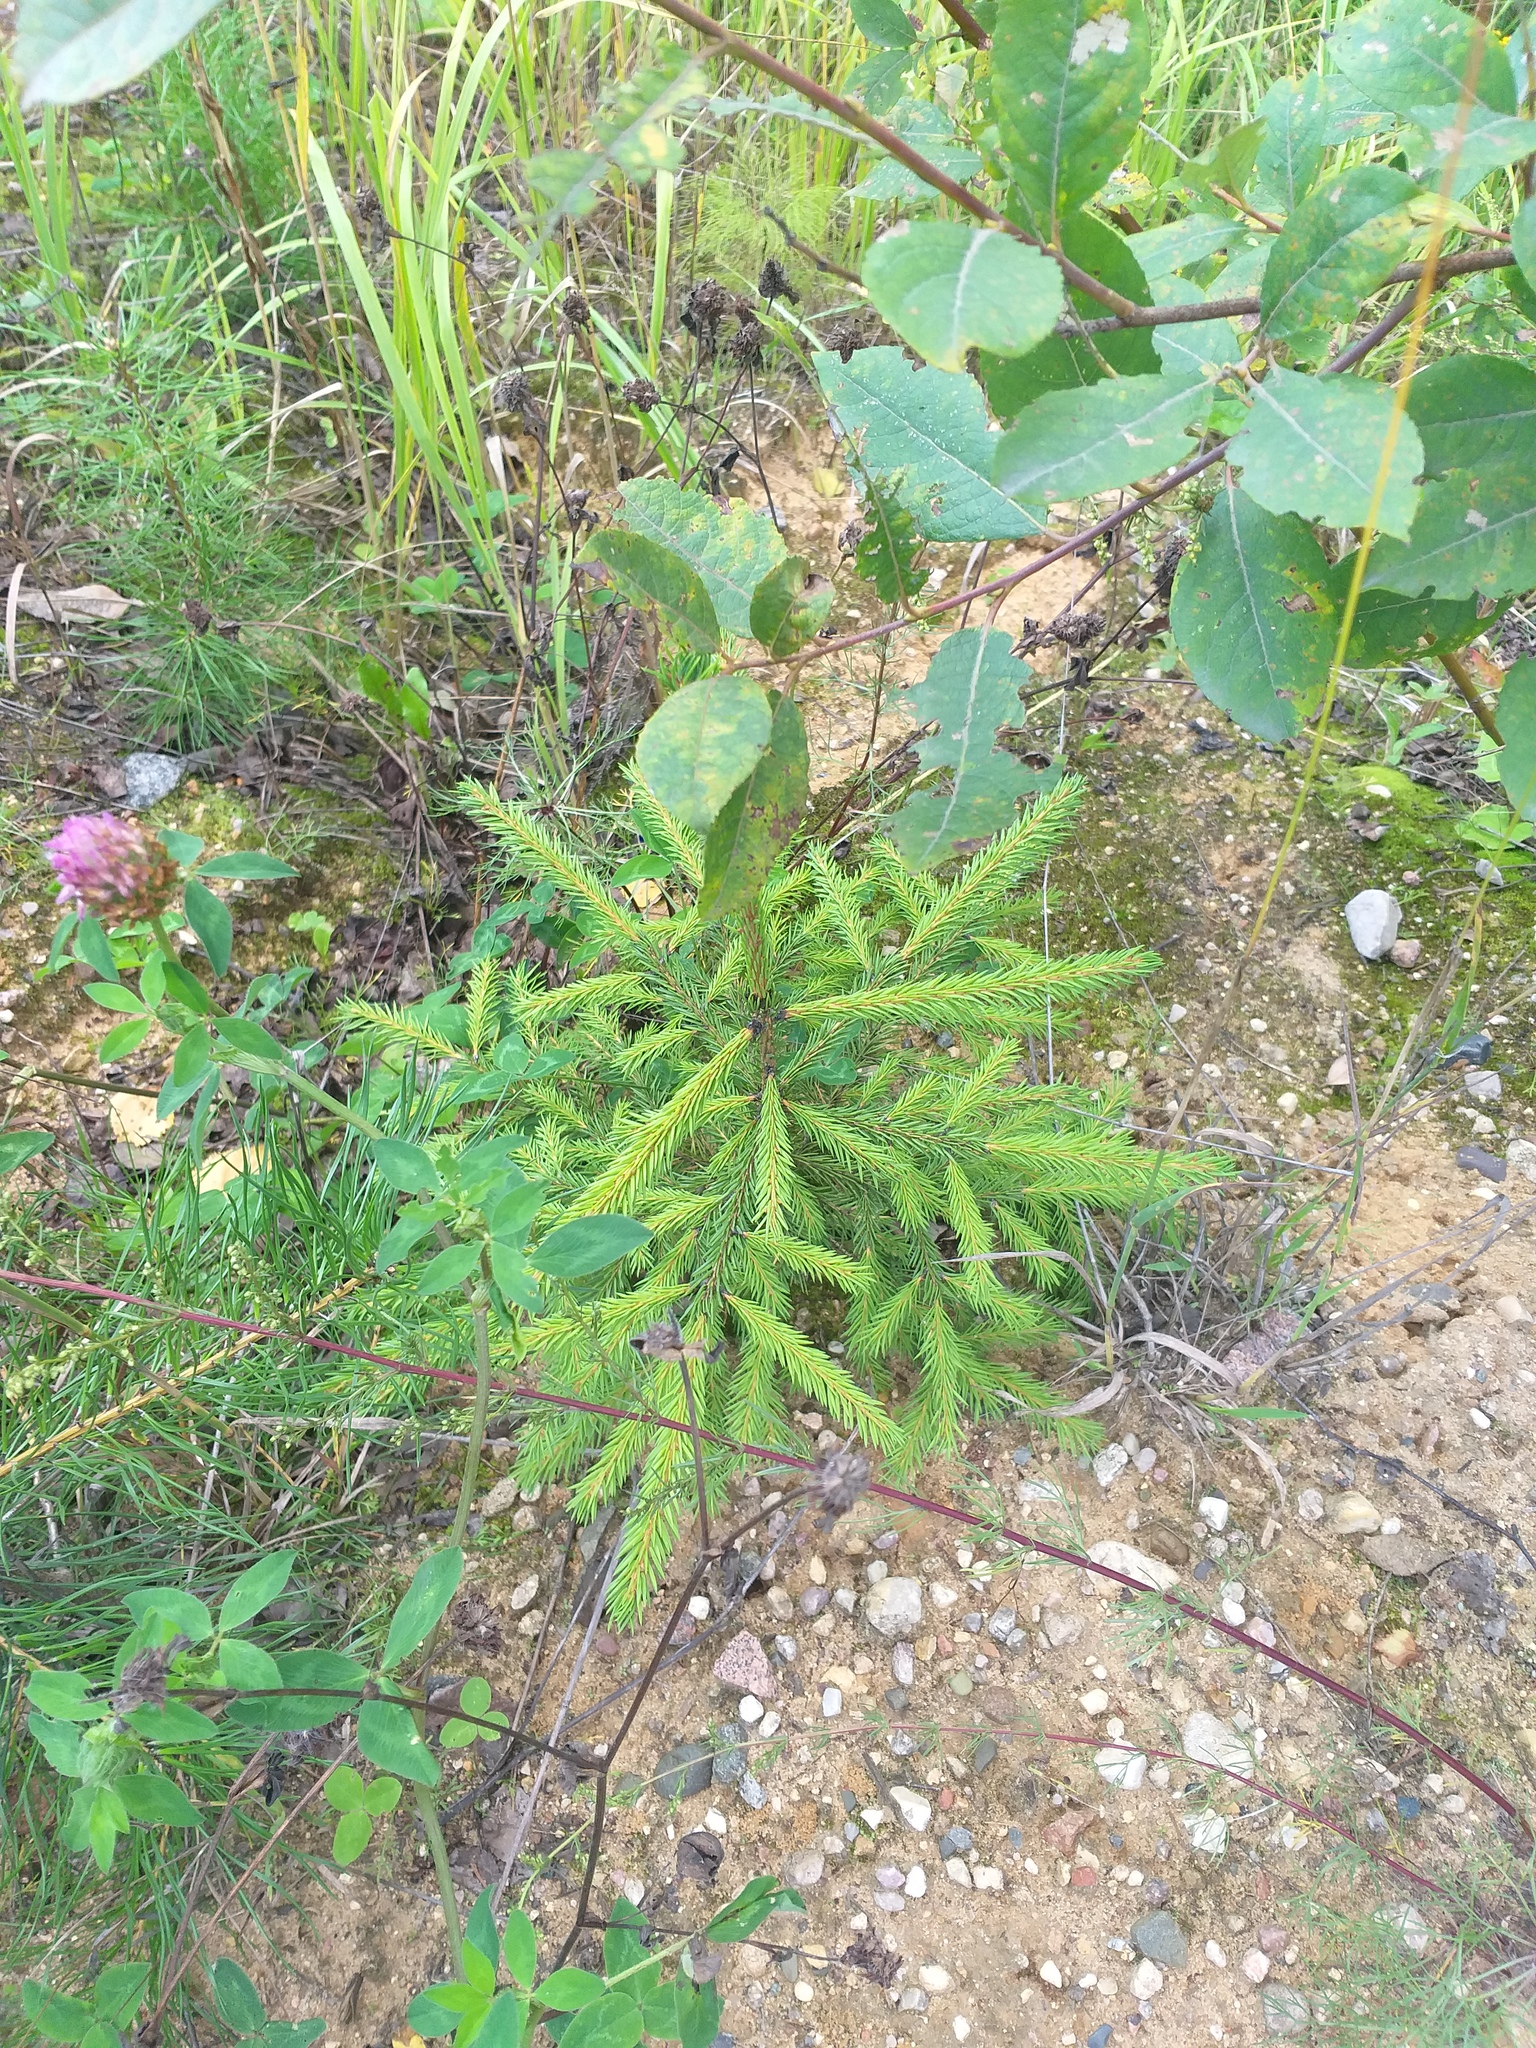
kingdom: Plantae
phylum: Tracheophyta
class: Pinopsida
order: Pinales
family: Pinaceae
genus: Picea
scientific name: Picea abies
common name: Norway spruce
